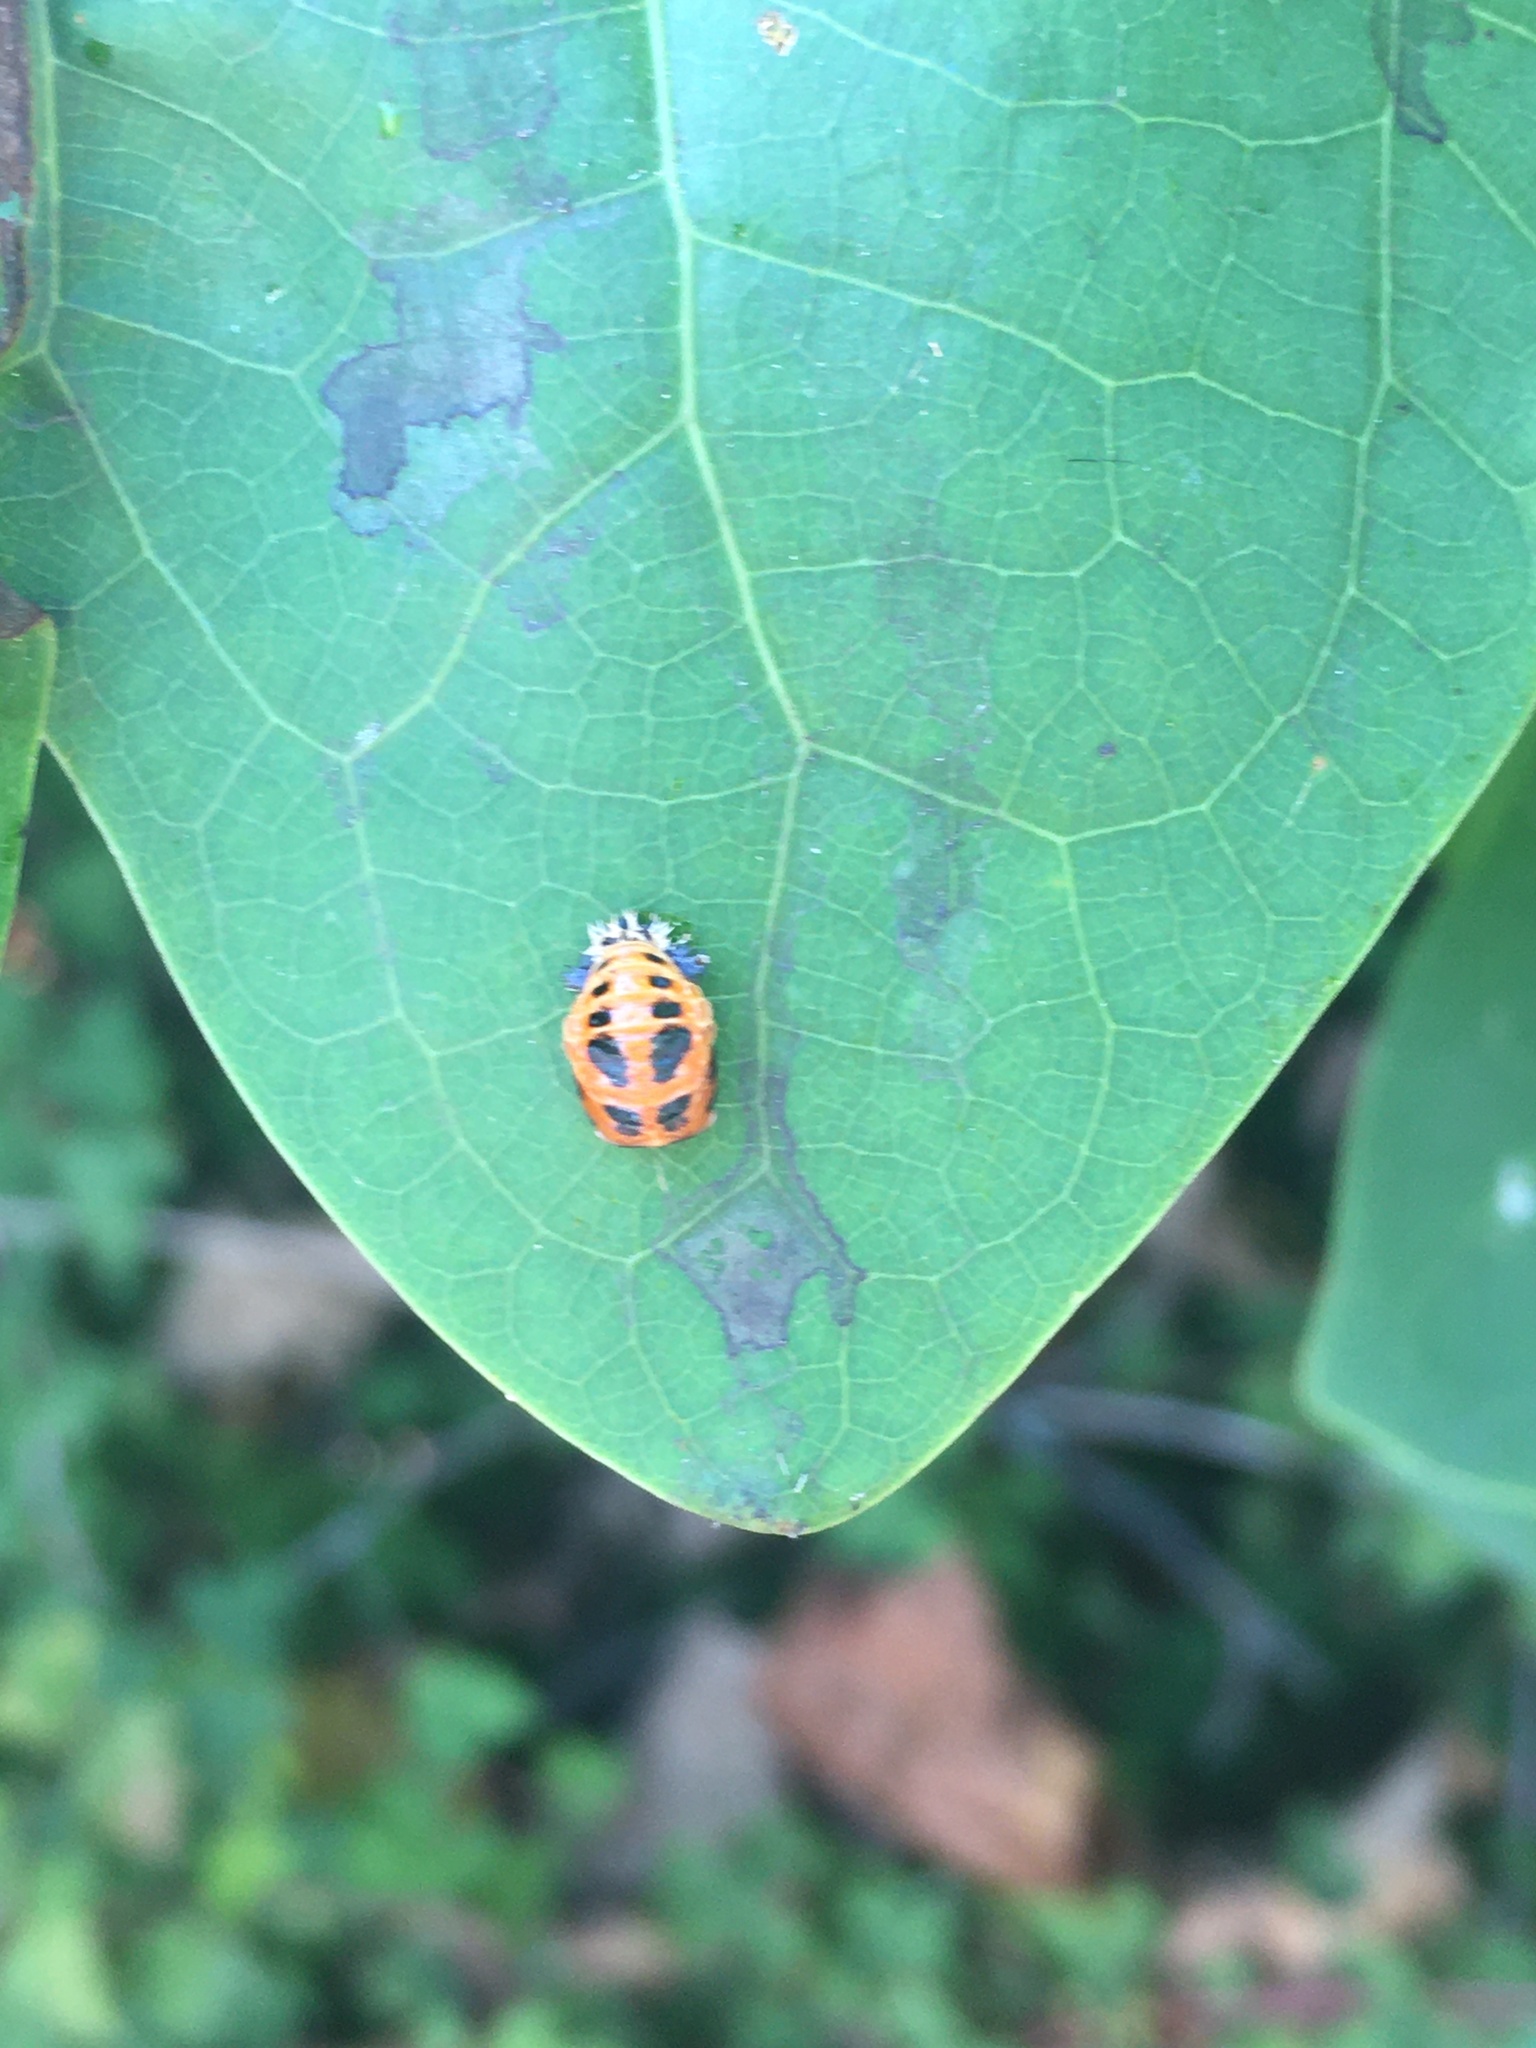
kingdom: Animalia
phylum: Arthropoda
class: Insecta
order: Coleoptera
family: Coccinellidae
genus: Harmonia
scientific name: Harmonia axyridis
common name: Harlequin ladybird
